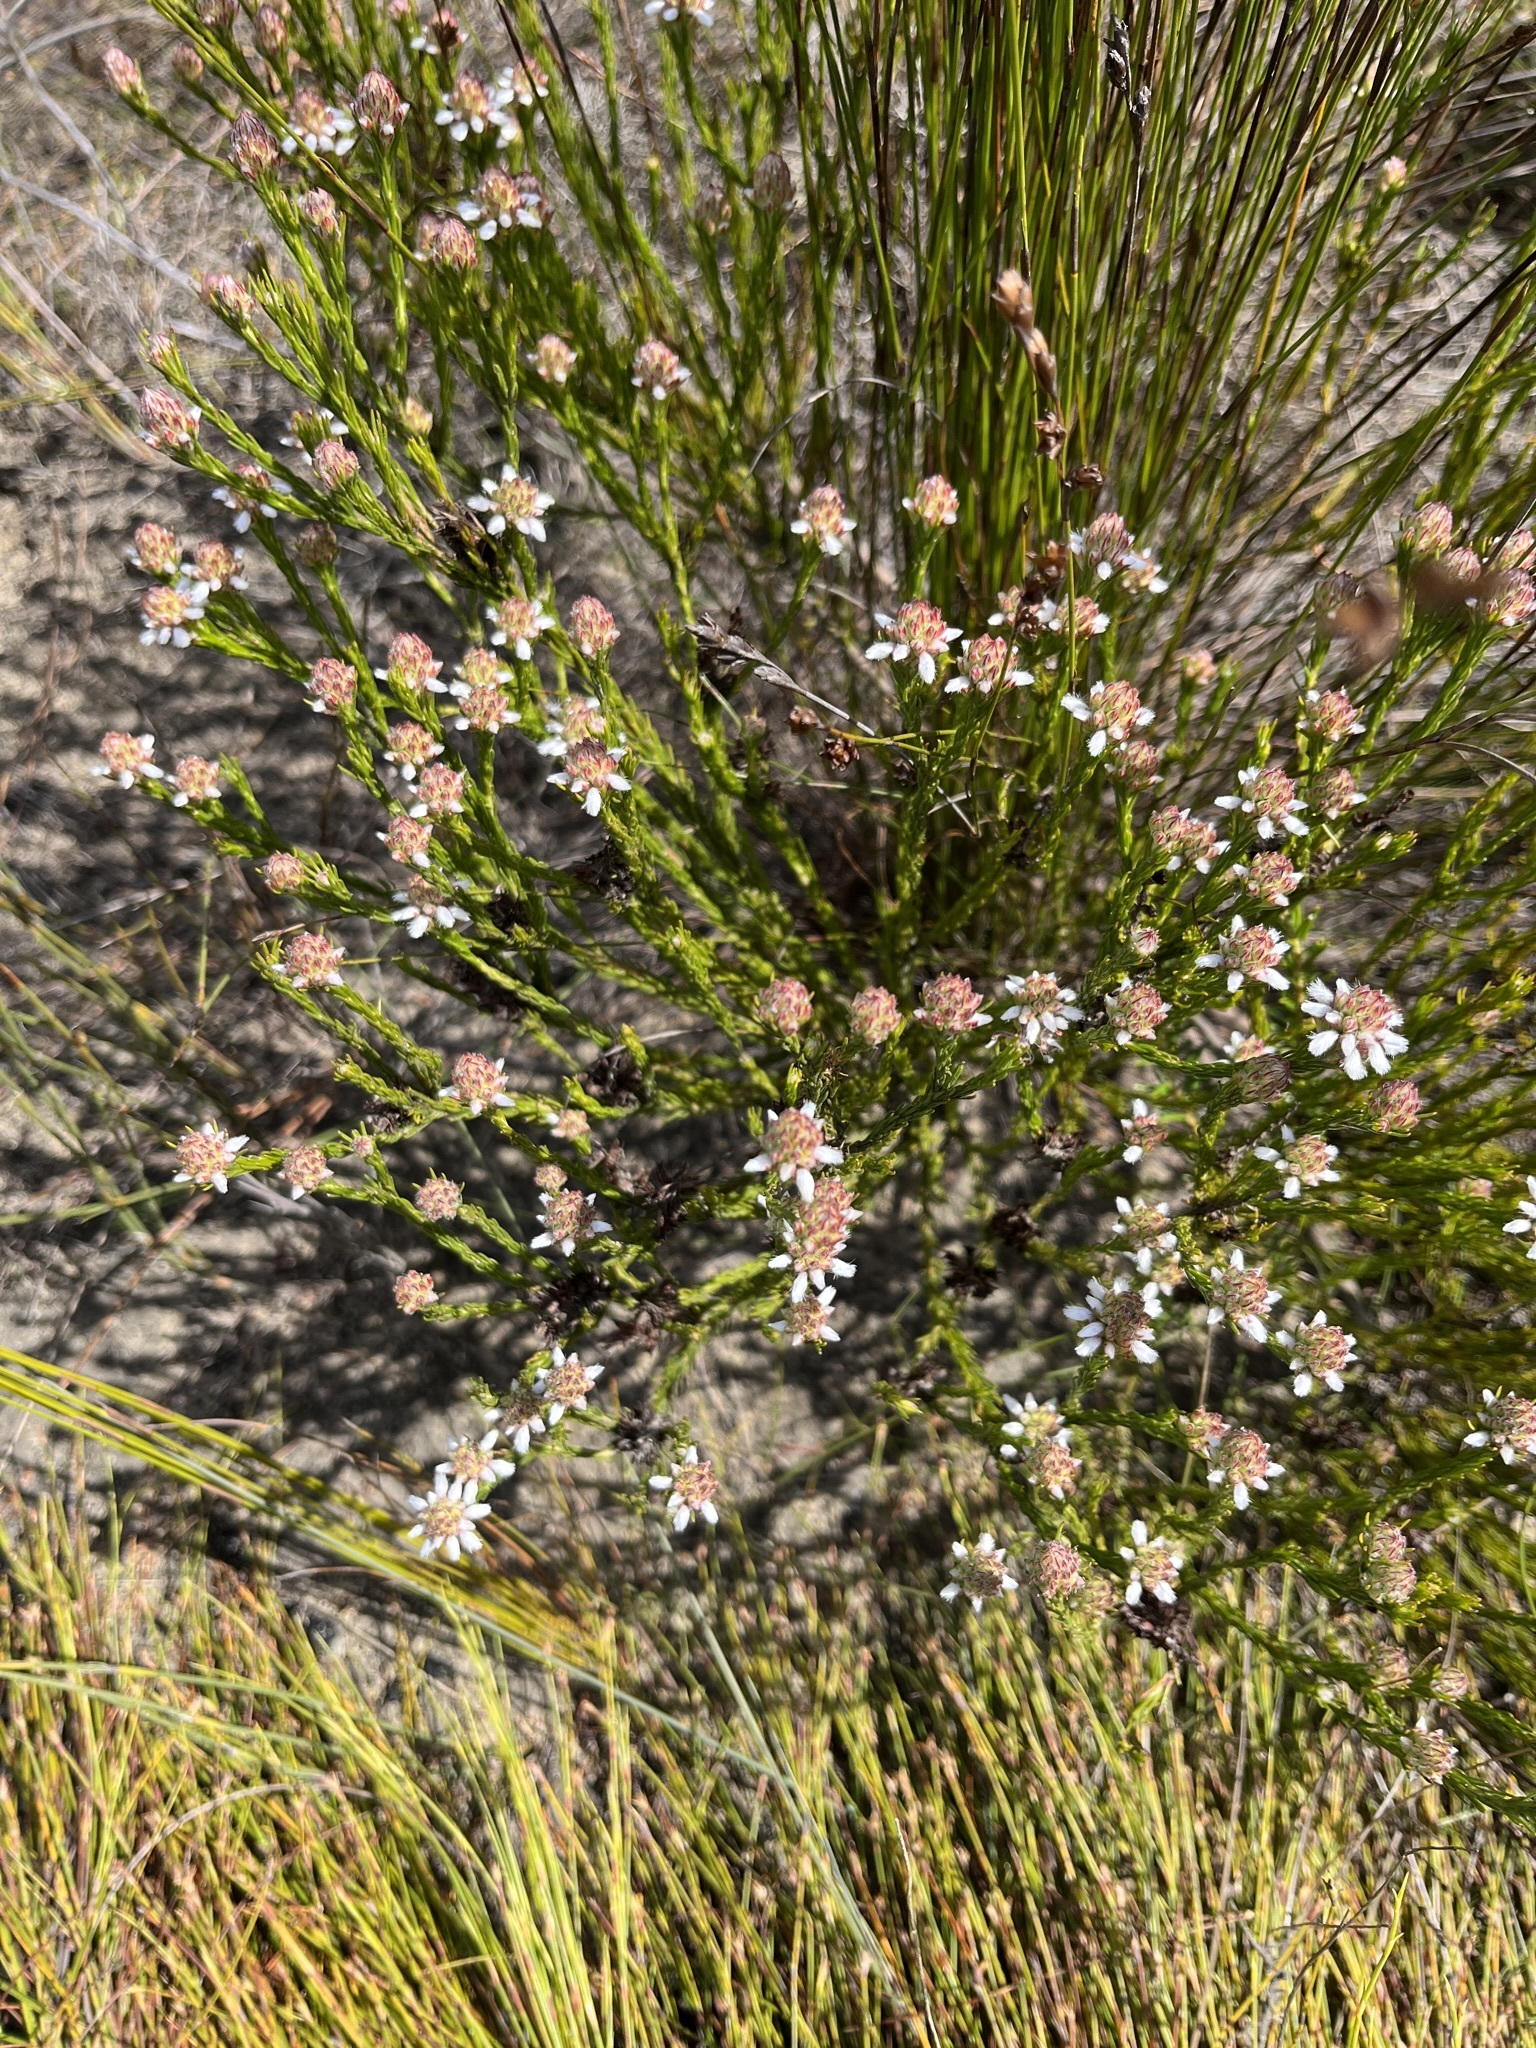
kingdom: Plantae
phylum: Tracheophyta
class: Magnoliopsida
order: Proteales
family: Proteaceae
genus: Spatalla
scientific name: Spatalla squamata
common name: Silky spoon
